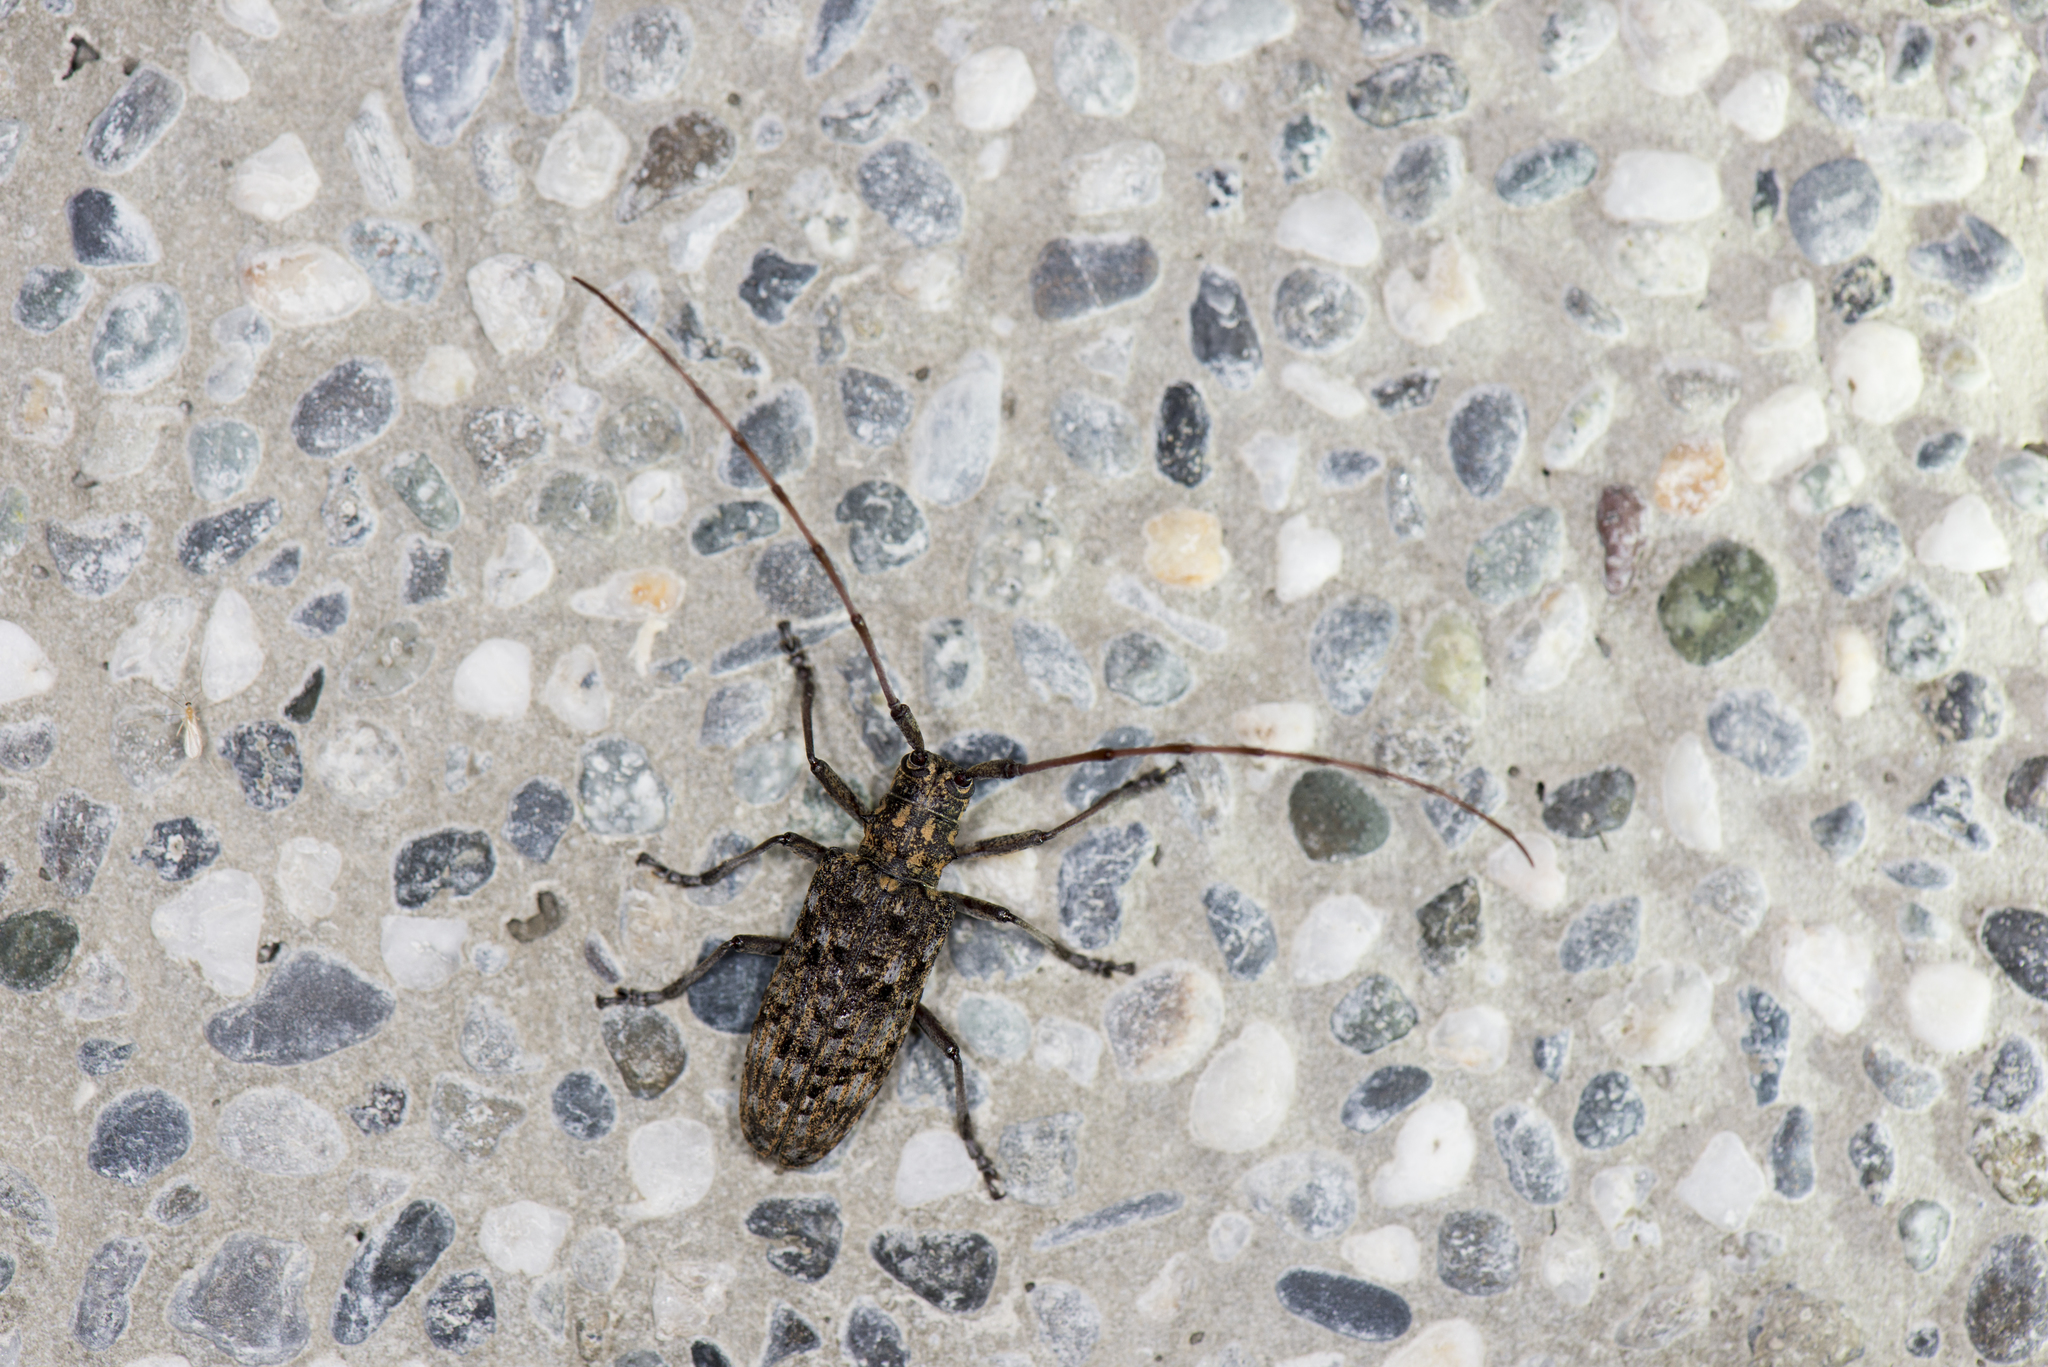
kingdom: Animalia
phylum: Arthropoda
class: Insecta
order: Coleoptera
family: Cerambycidae
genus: Monochamus
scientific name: Monochamus alternatus
